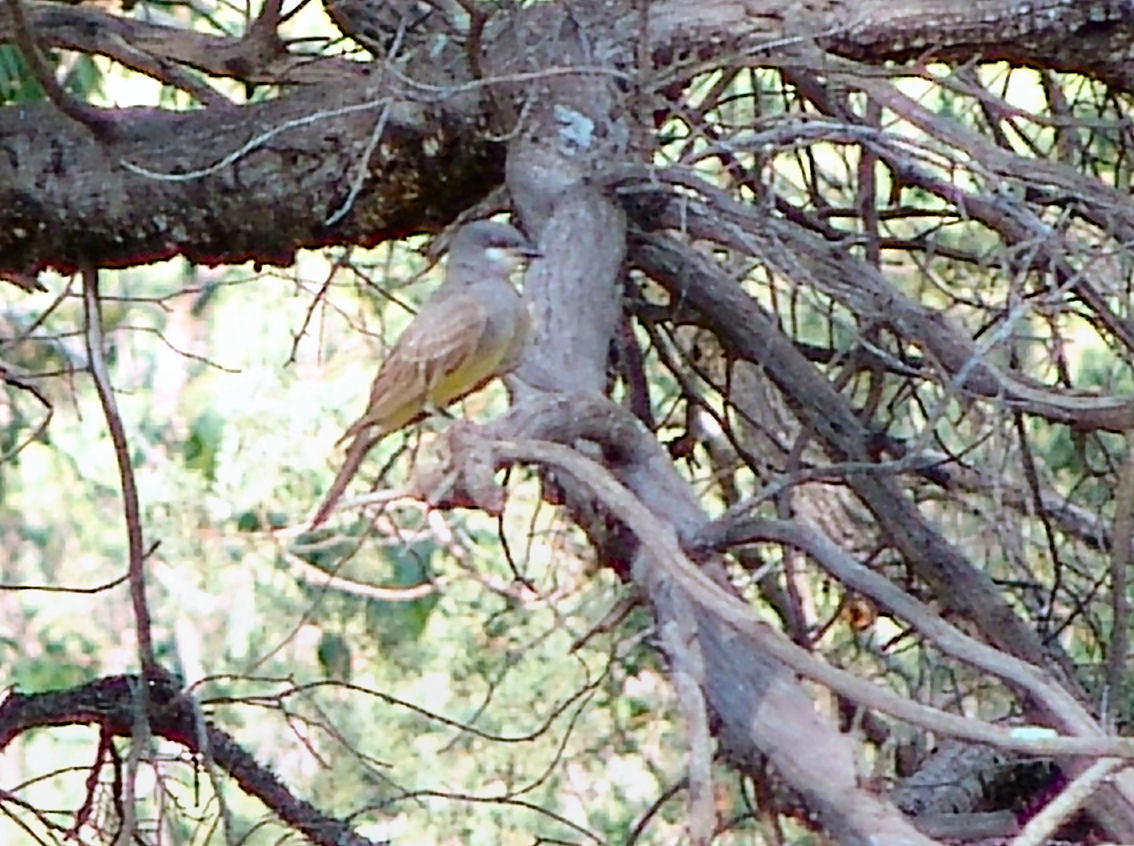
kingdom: Animalia
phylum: Chordata
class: Aves
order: Passeriformes
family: Tyrannidae
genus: Tyrannus
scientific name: Tyrannus vociferans
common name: Cassin's kingbird
